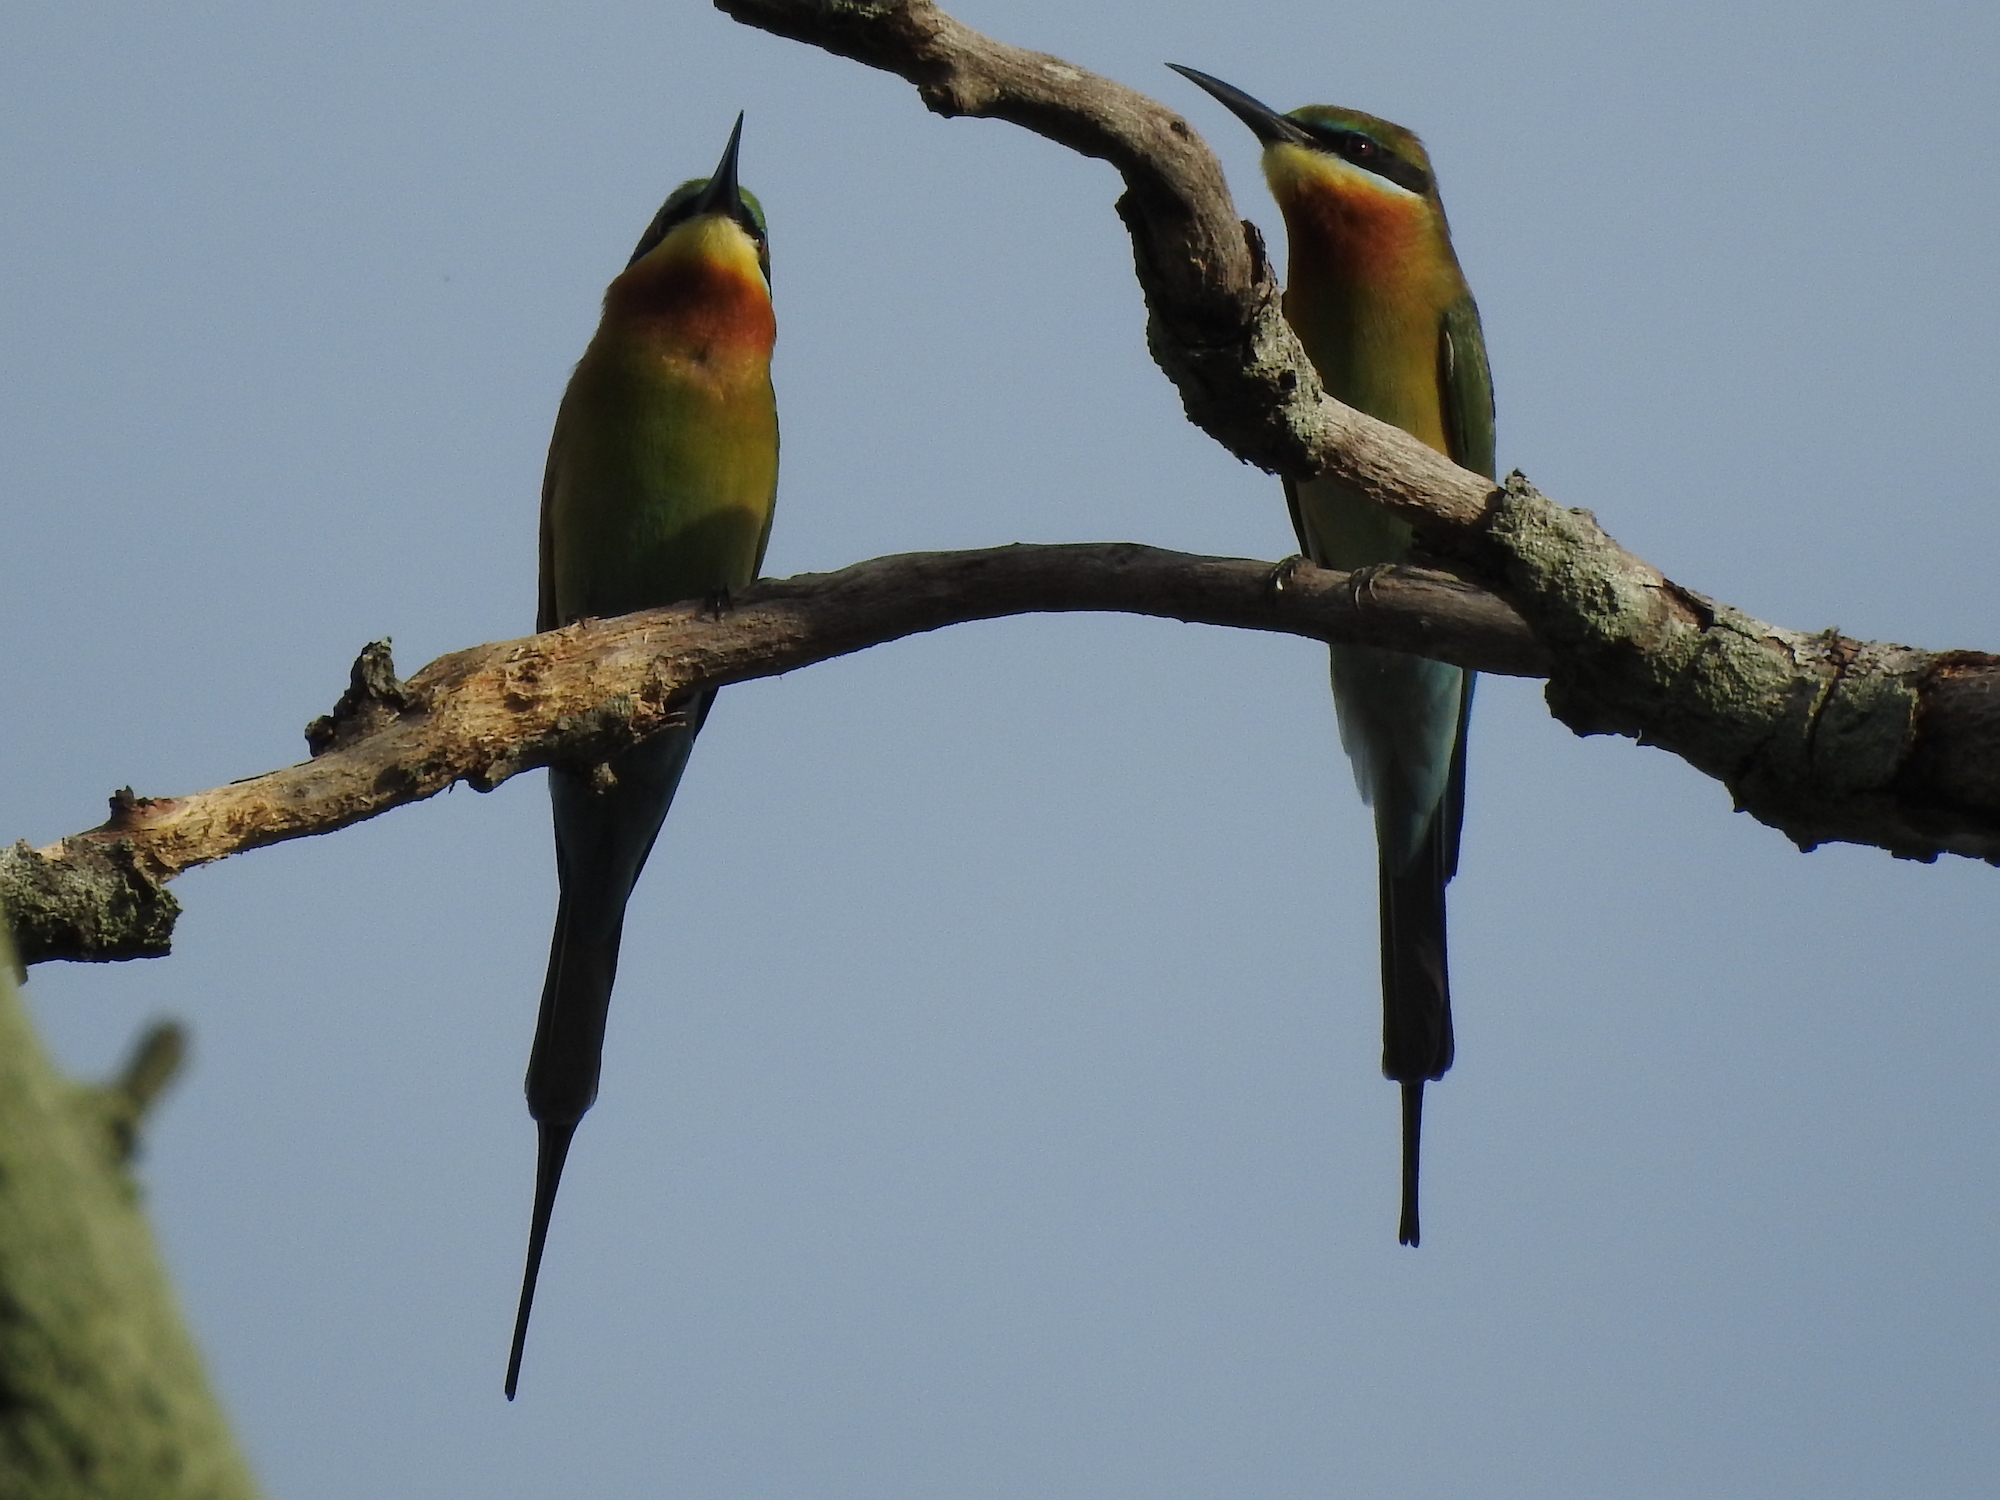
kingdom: Animalia
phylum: Chordata
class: Aves
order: Coraciiformes
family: Meropidae
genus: Merops
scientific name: Merops philippinus
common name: Blue-tailed bee-eater
